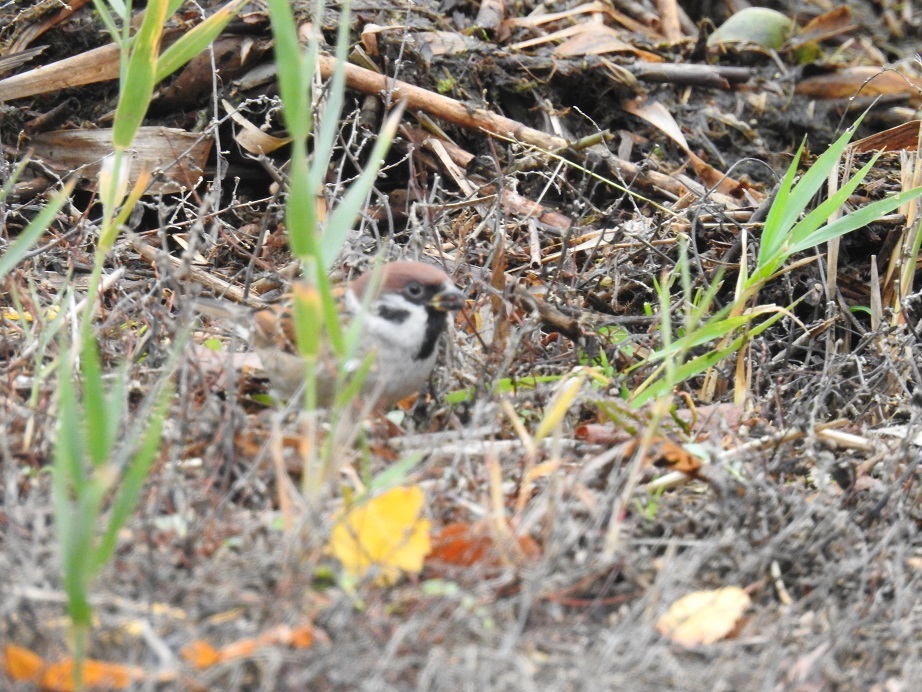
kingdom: Animalia
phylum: Chordata
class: Aves
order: Passeriformes
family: Passeridae
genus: Passer
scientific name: Passer montanus
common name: Eurasian tree sparrow
